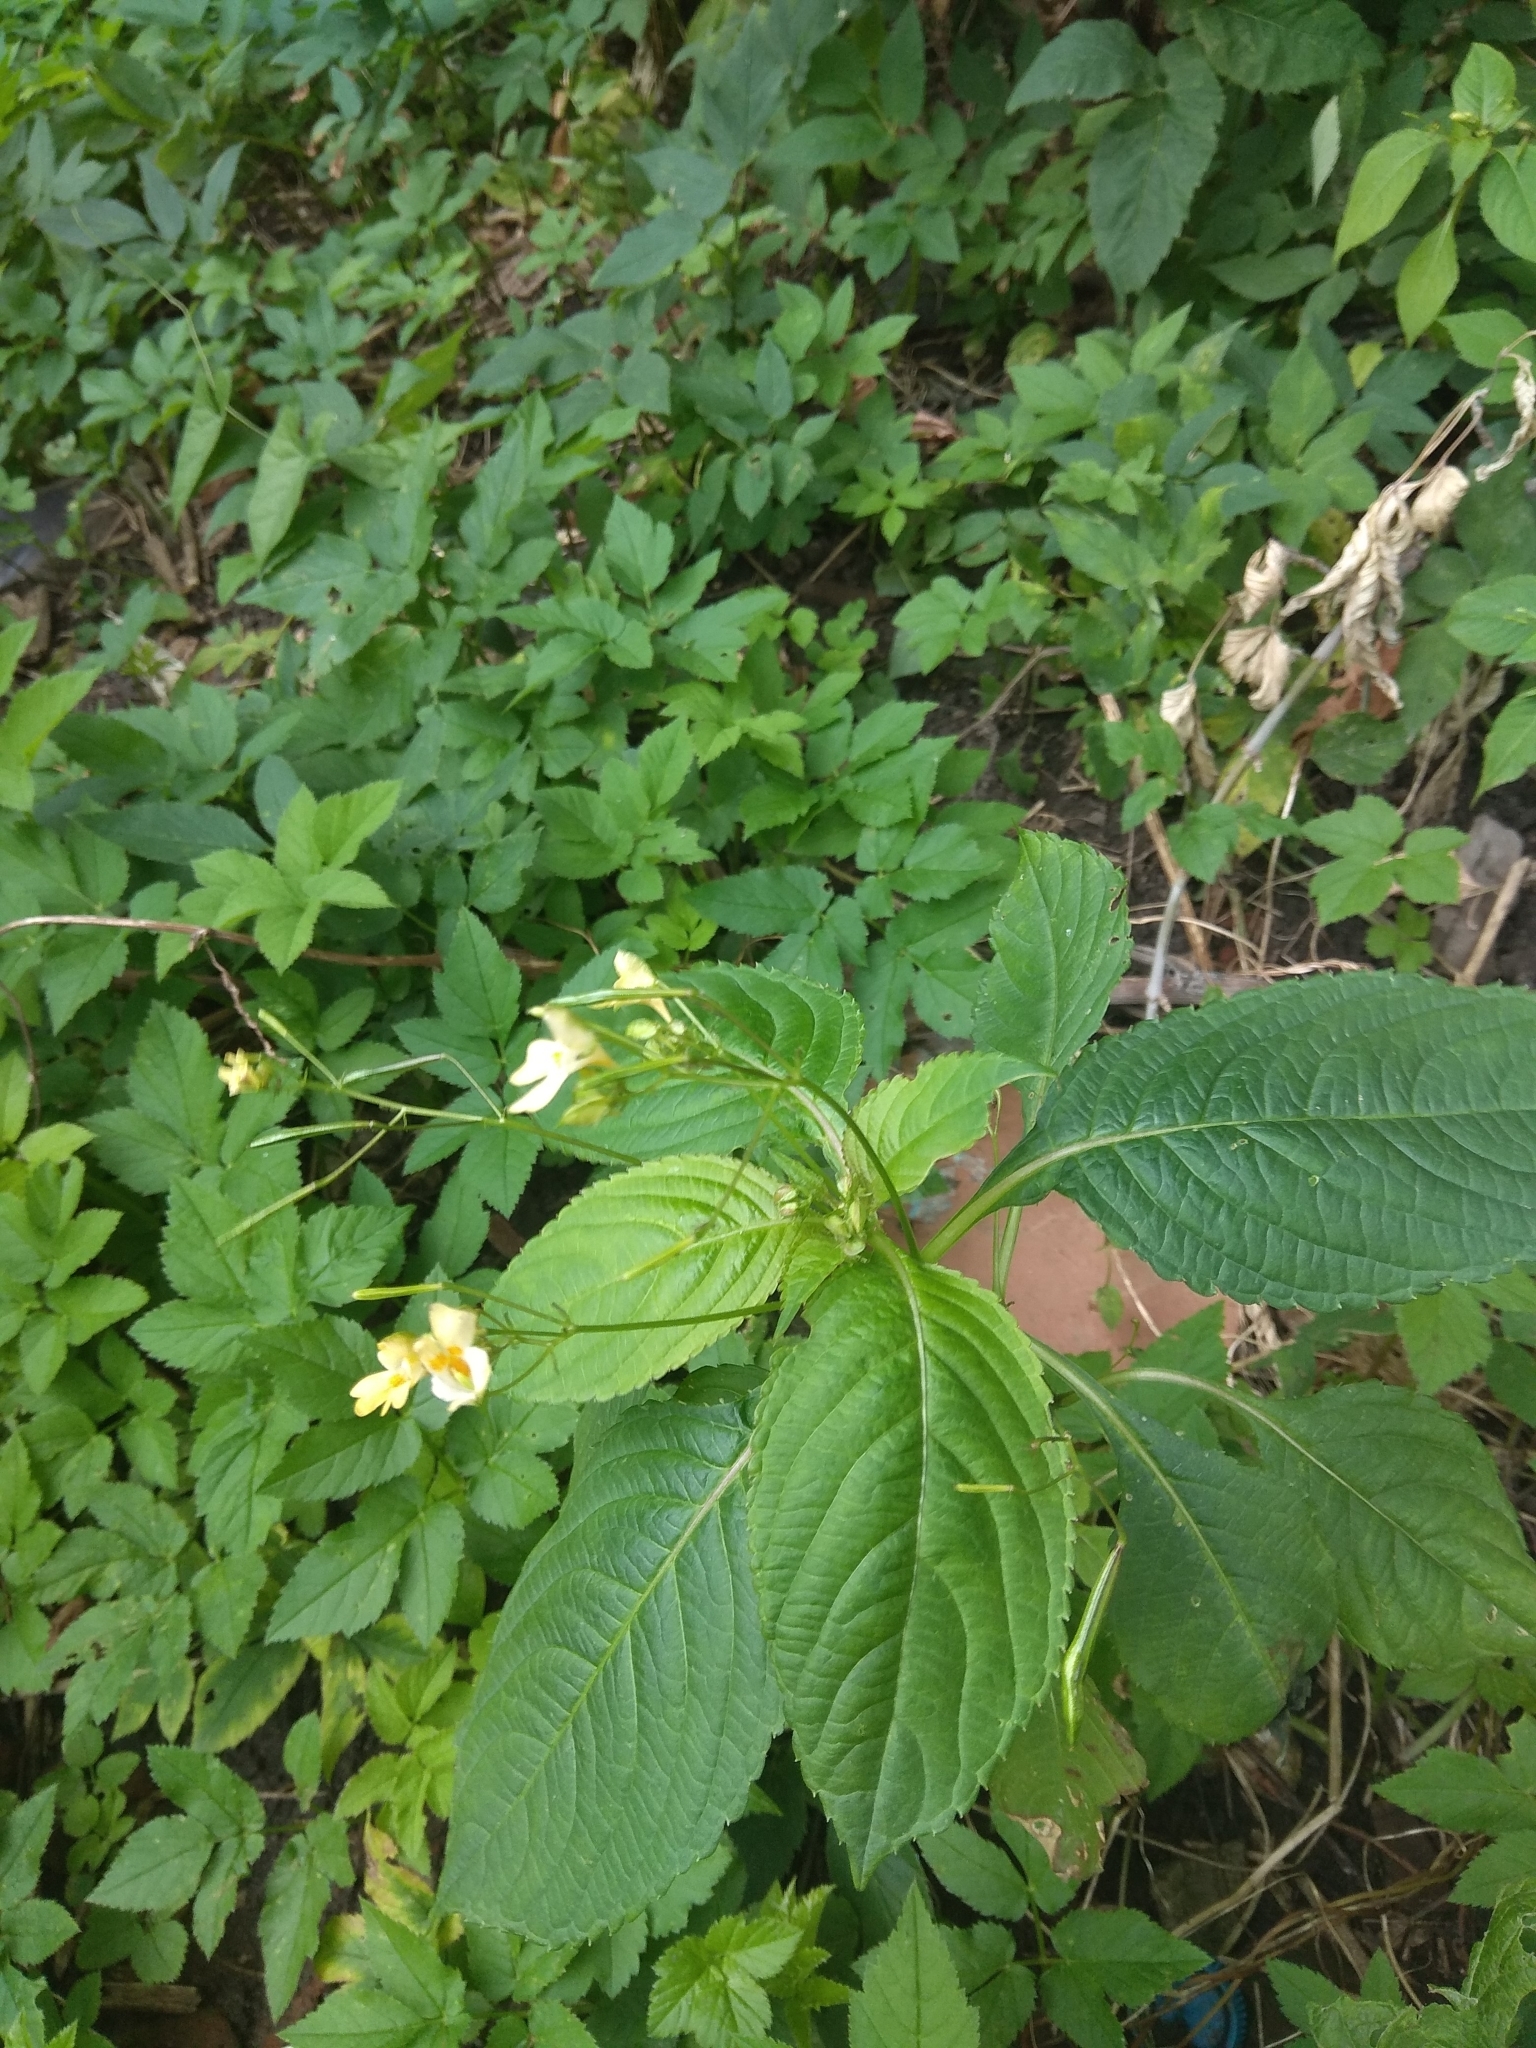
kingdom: Plantae
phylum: Tracheophyta
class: Magnoliopsida
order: Ericales
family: Balsaminaceae
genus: Impatiens
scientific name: Impatiens parviflora
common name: Small balsam
